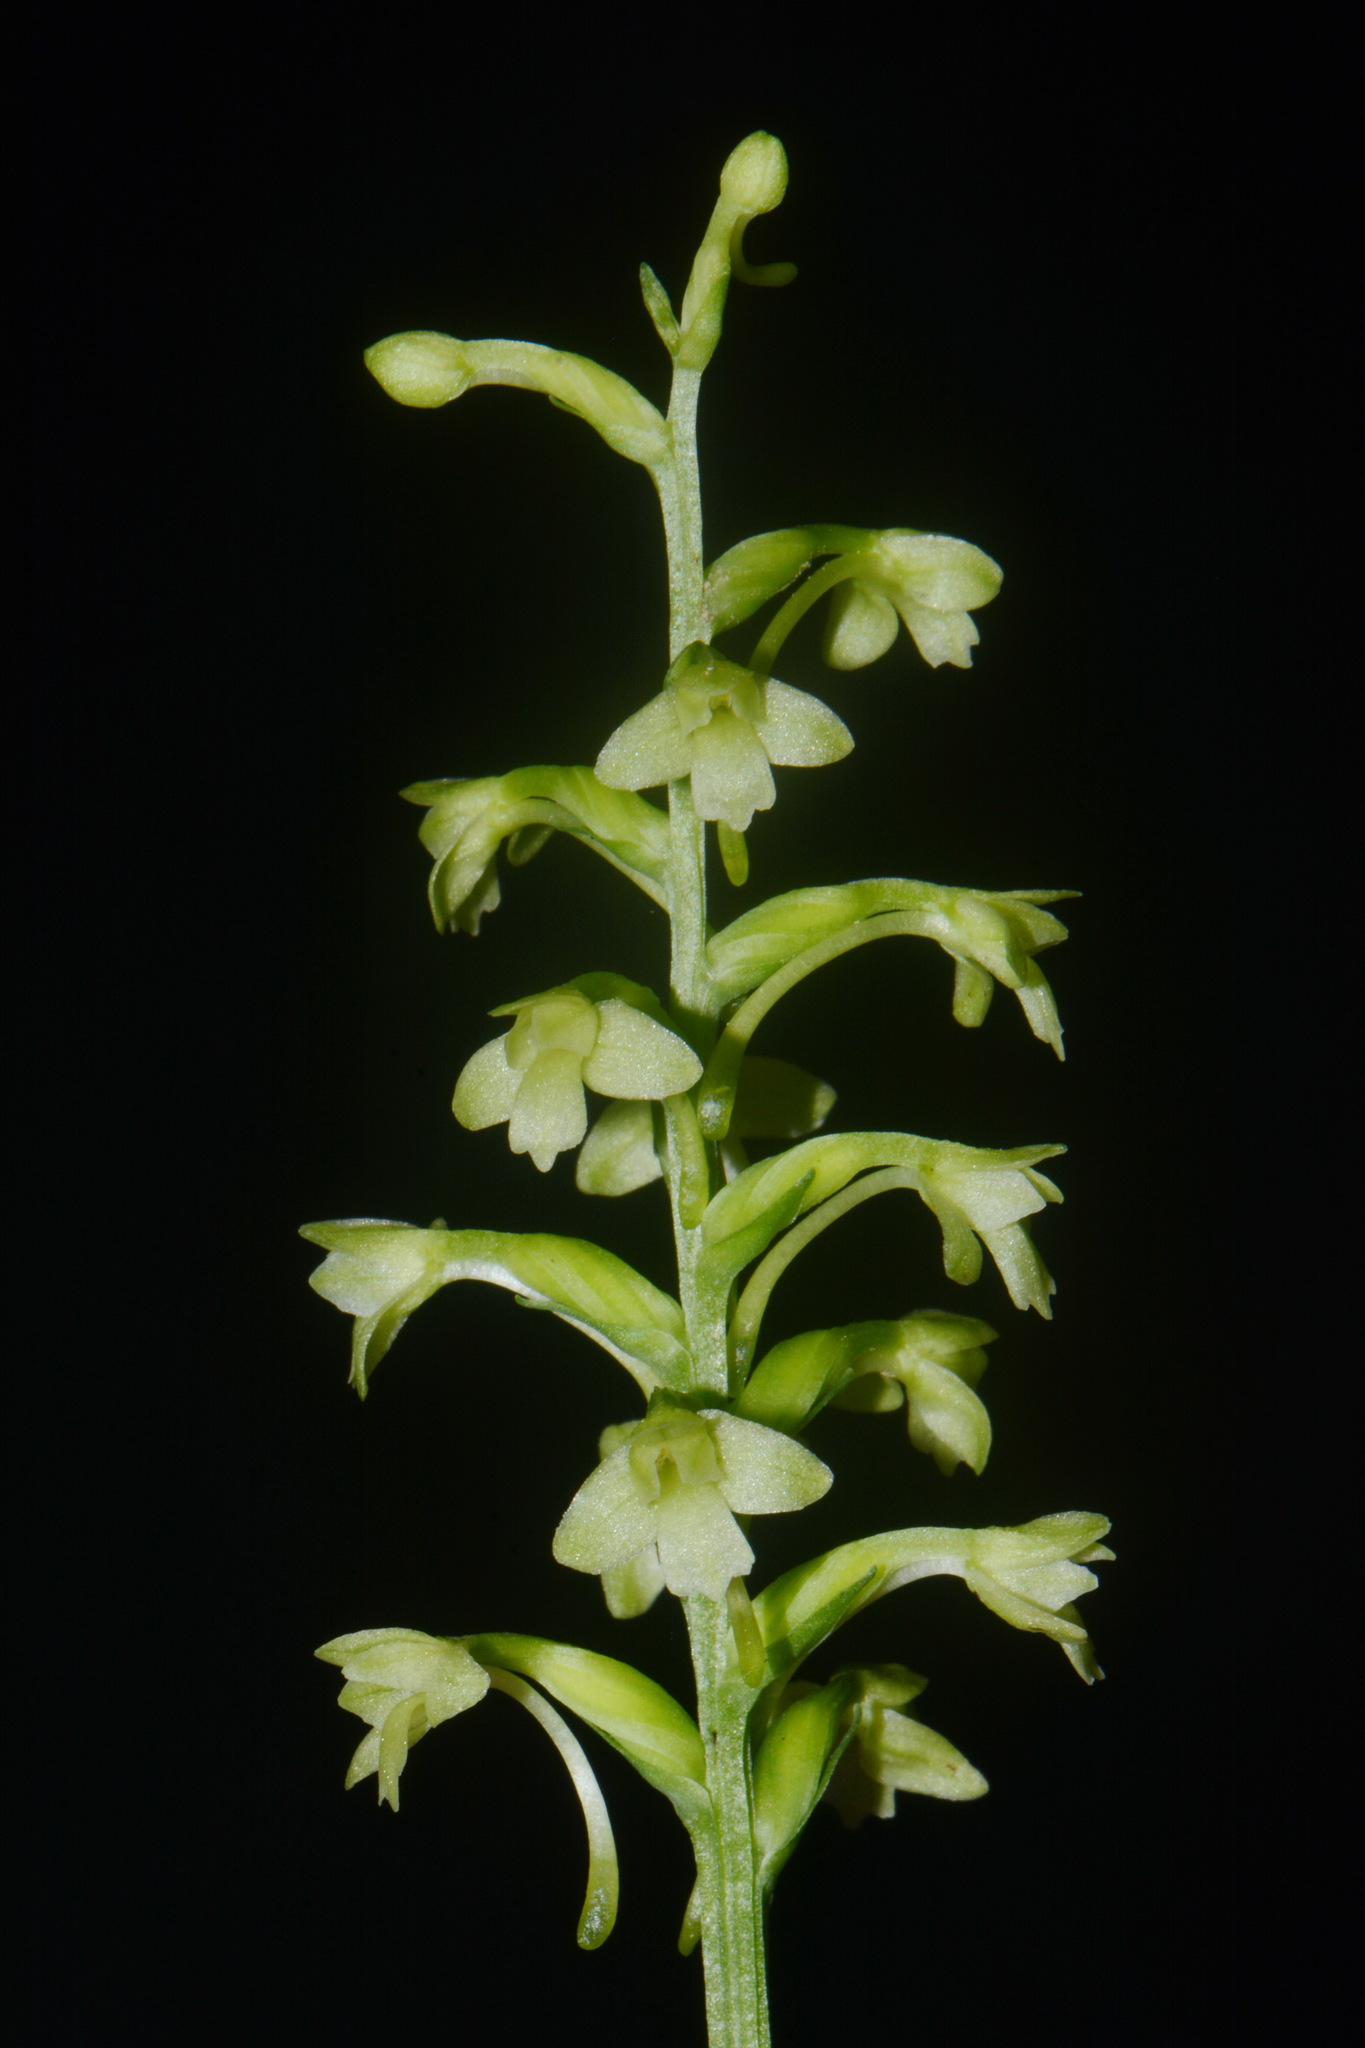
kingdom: Plantae
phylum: Tracheophyta
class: Liliopsida
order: Asparagales
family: Orchidaceae
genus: Platanthera
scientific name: Platanthera clavellata
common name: Club-spur orchid
